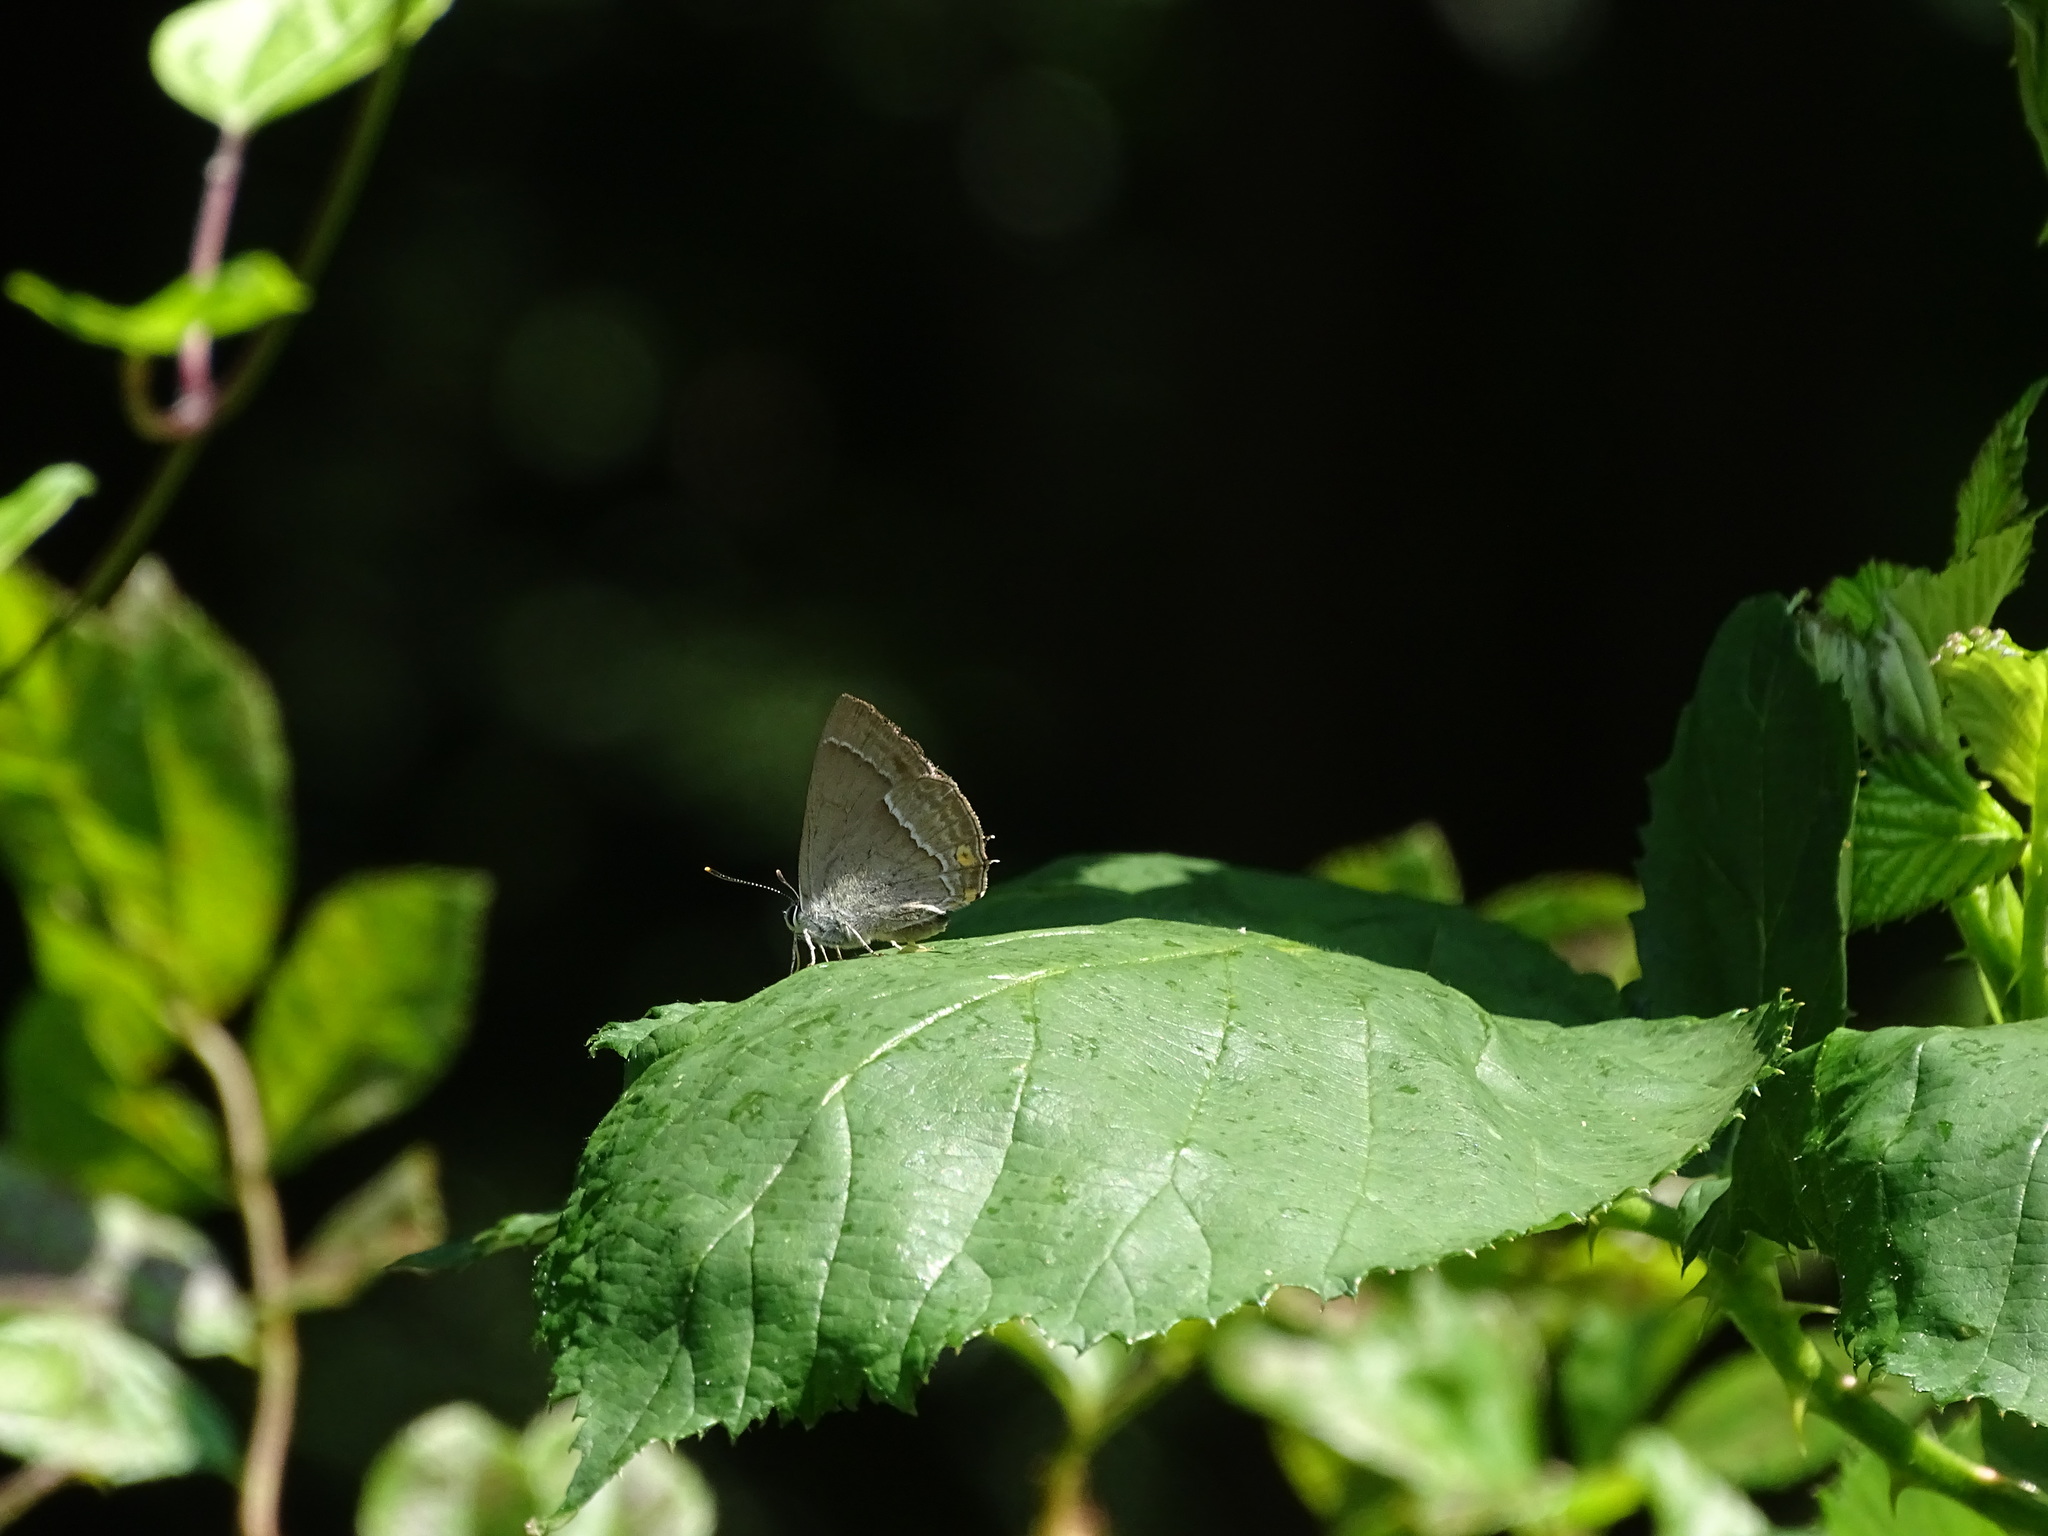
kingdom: Animalia
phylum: Arthropoda
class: Insecta
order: Lepidoptera
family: Lycaenidae
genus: Quercusia
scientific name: Quercusia quercus
